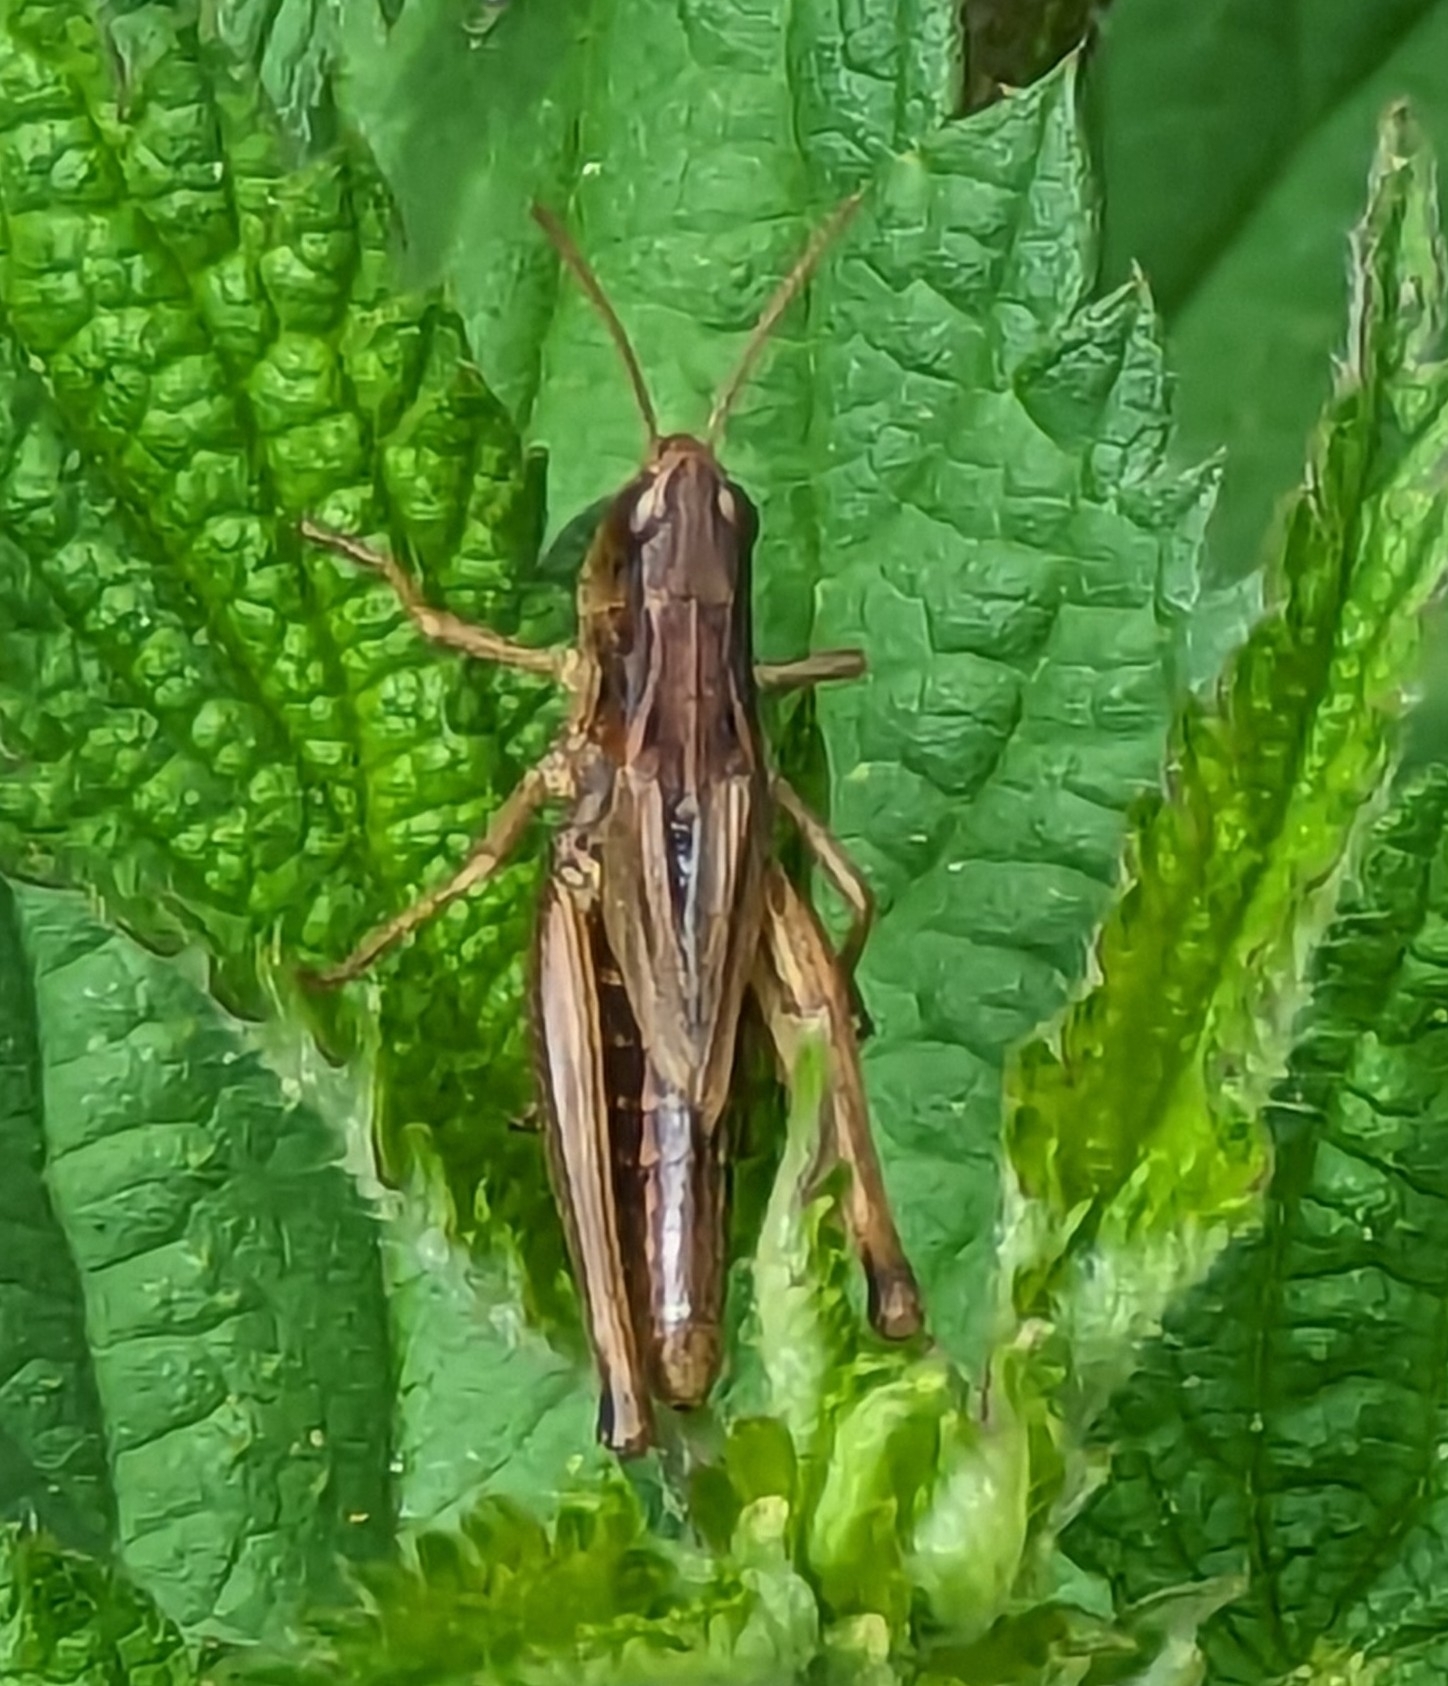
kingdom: Animalia
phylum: Arthropoda
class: Insecta
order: Orthoptera
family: Acrididae
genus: Pseudochorthippus
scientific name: Pseudochorthippus parallelus
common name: Meadow grasshopper
